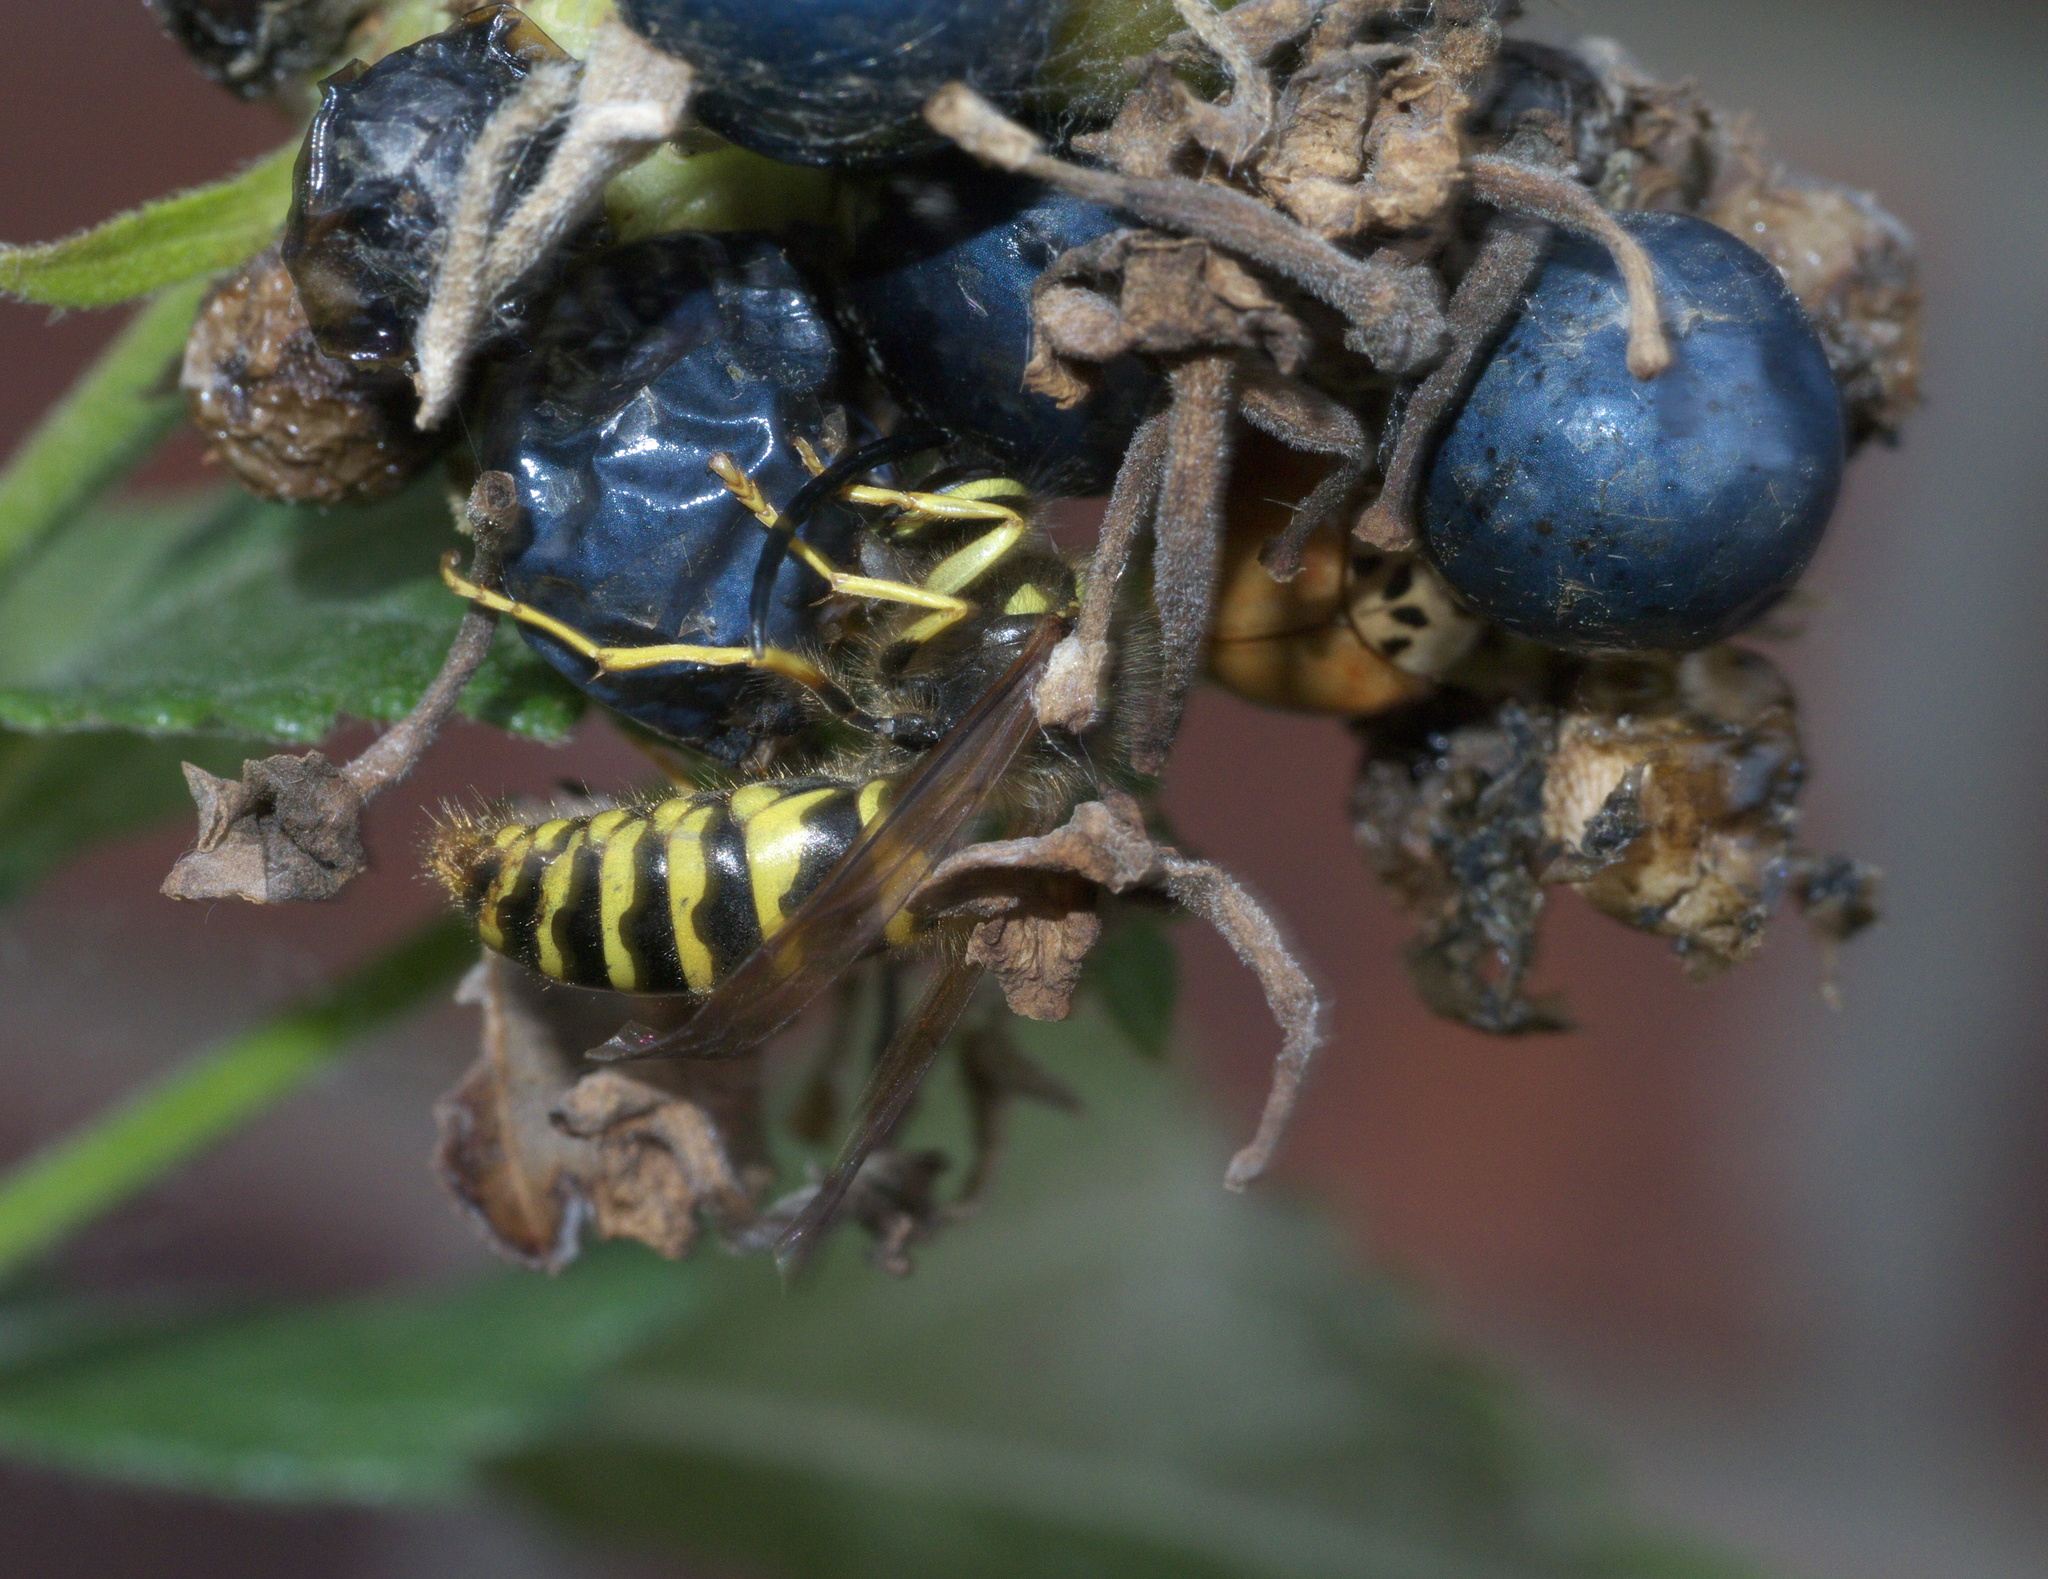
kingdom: Animalia
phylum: Arthropoda
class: Insecta
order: Hymenoptera
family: Vespidae
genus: Vespula
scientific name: Vespula maculifrons
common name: Eastern yellowjacket
